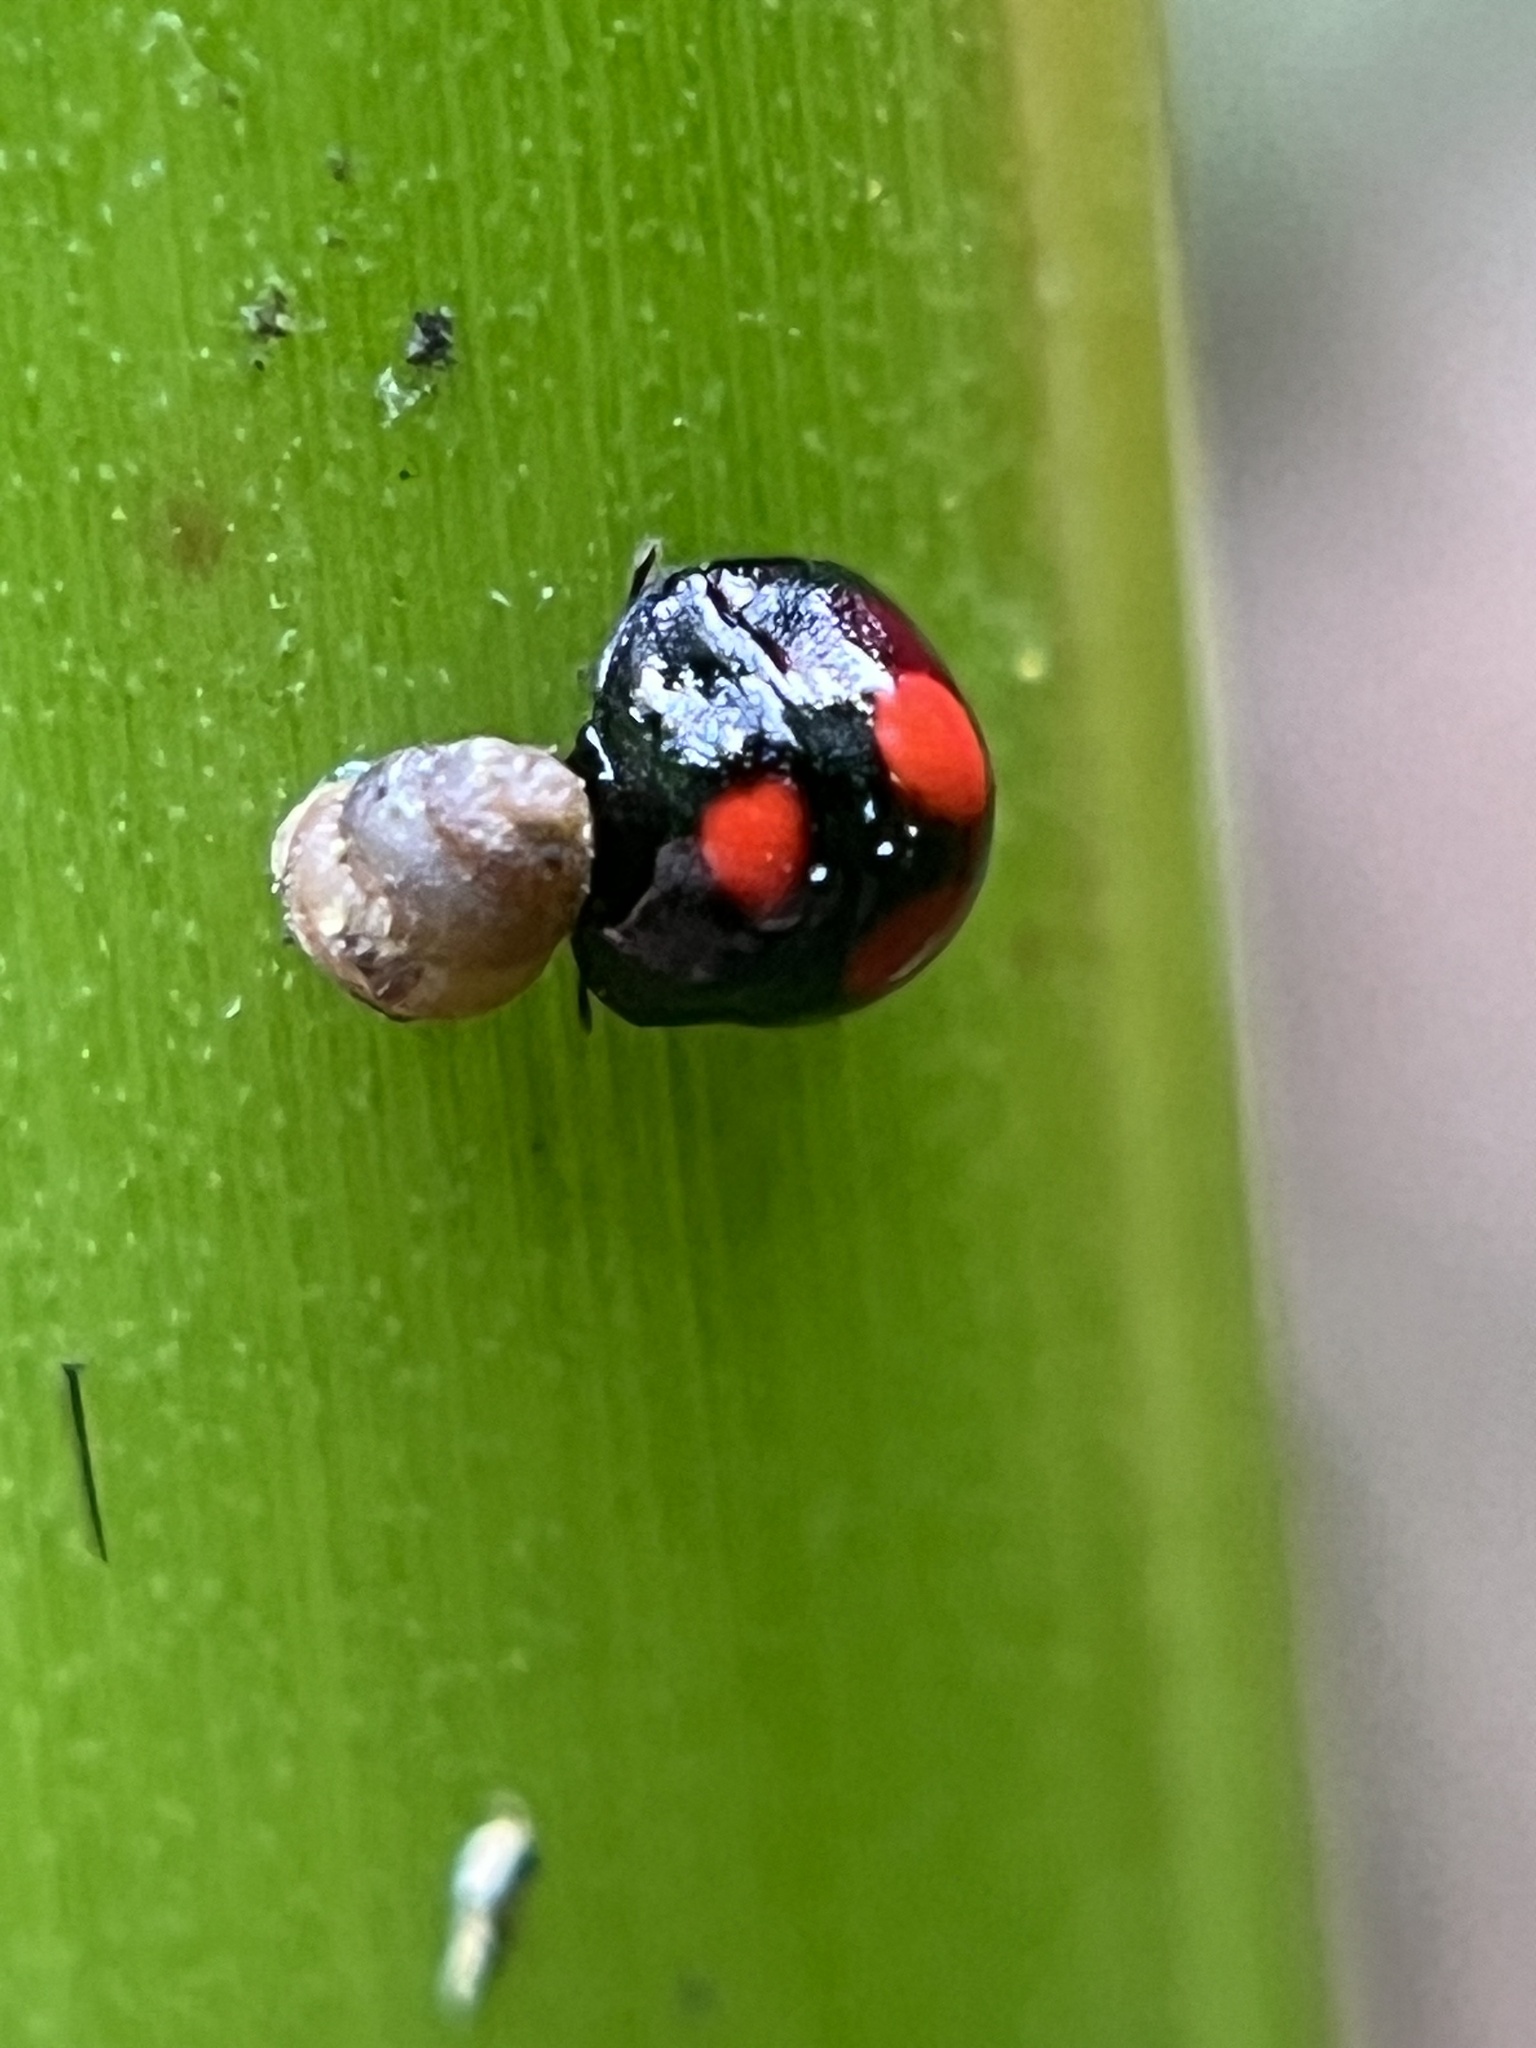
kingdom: Animalia
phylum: Arthropoda
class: Insecta
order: Hemiptera
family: Megarididae
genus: Megaris
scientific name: Megaris
